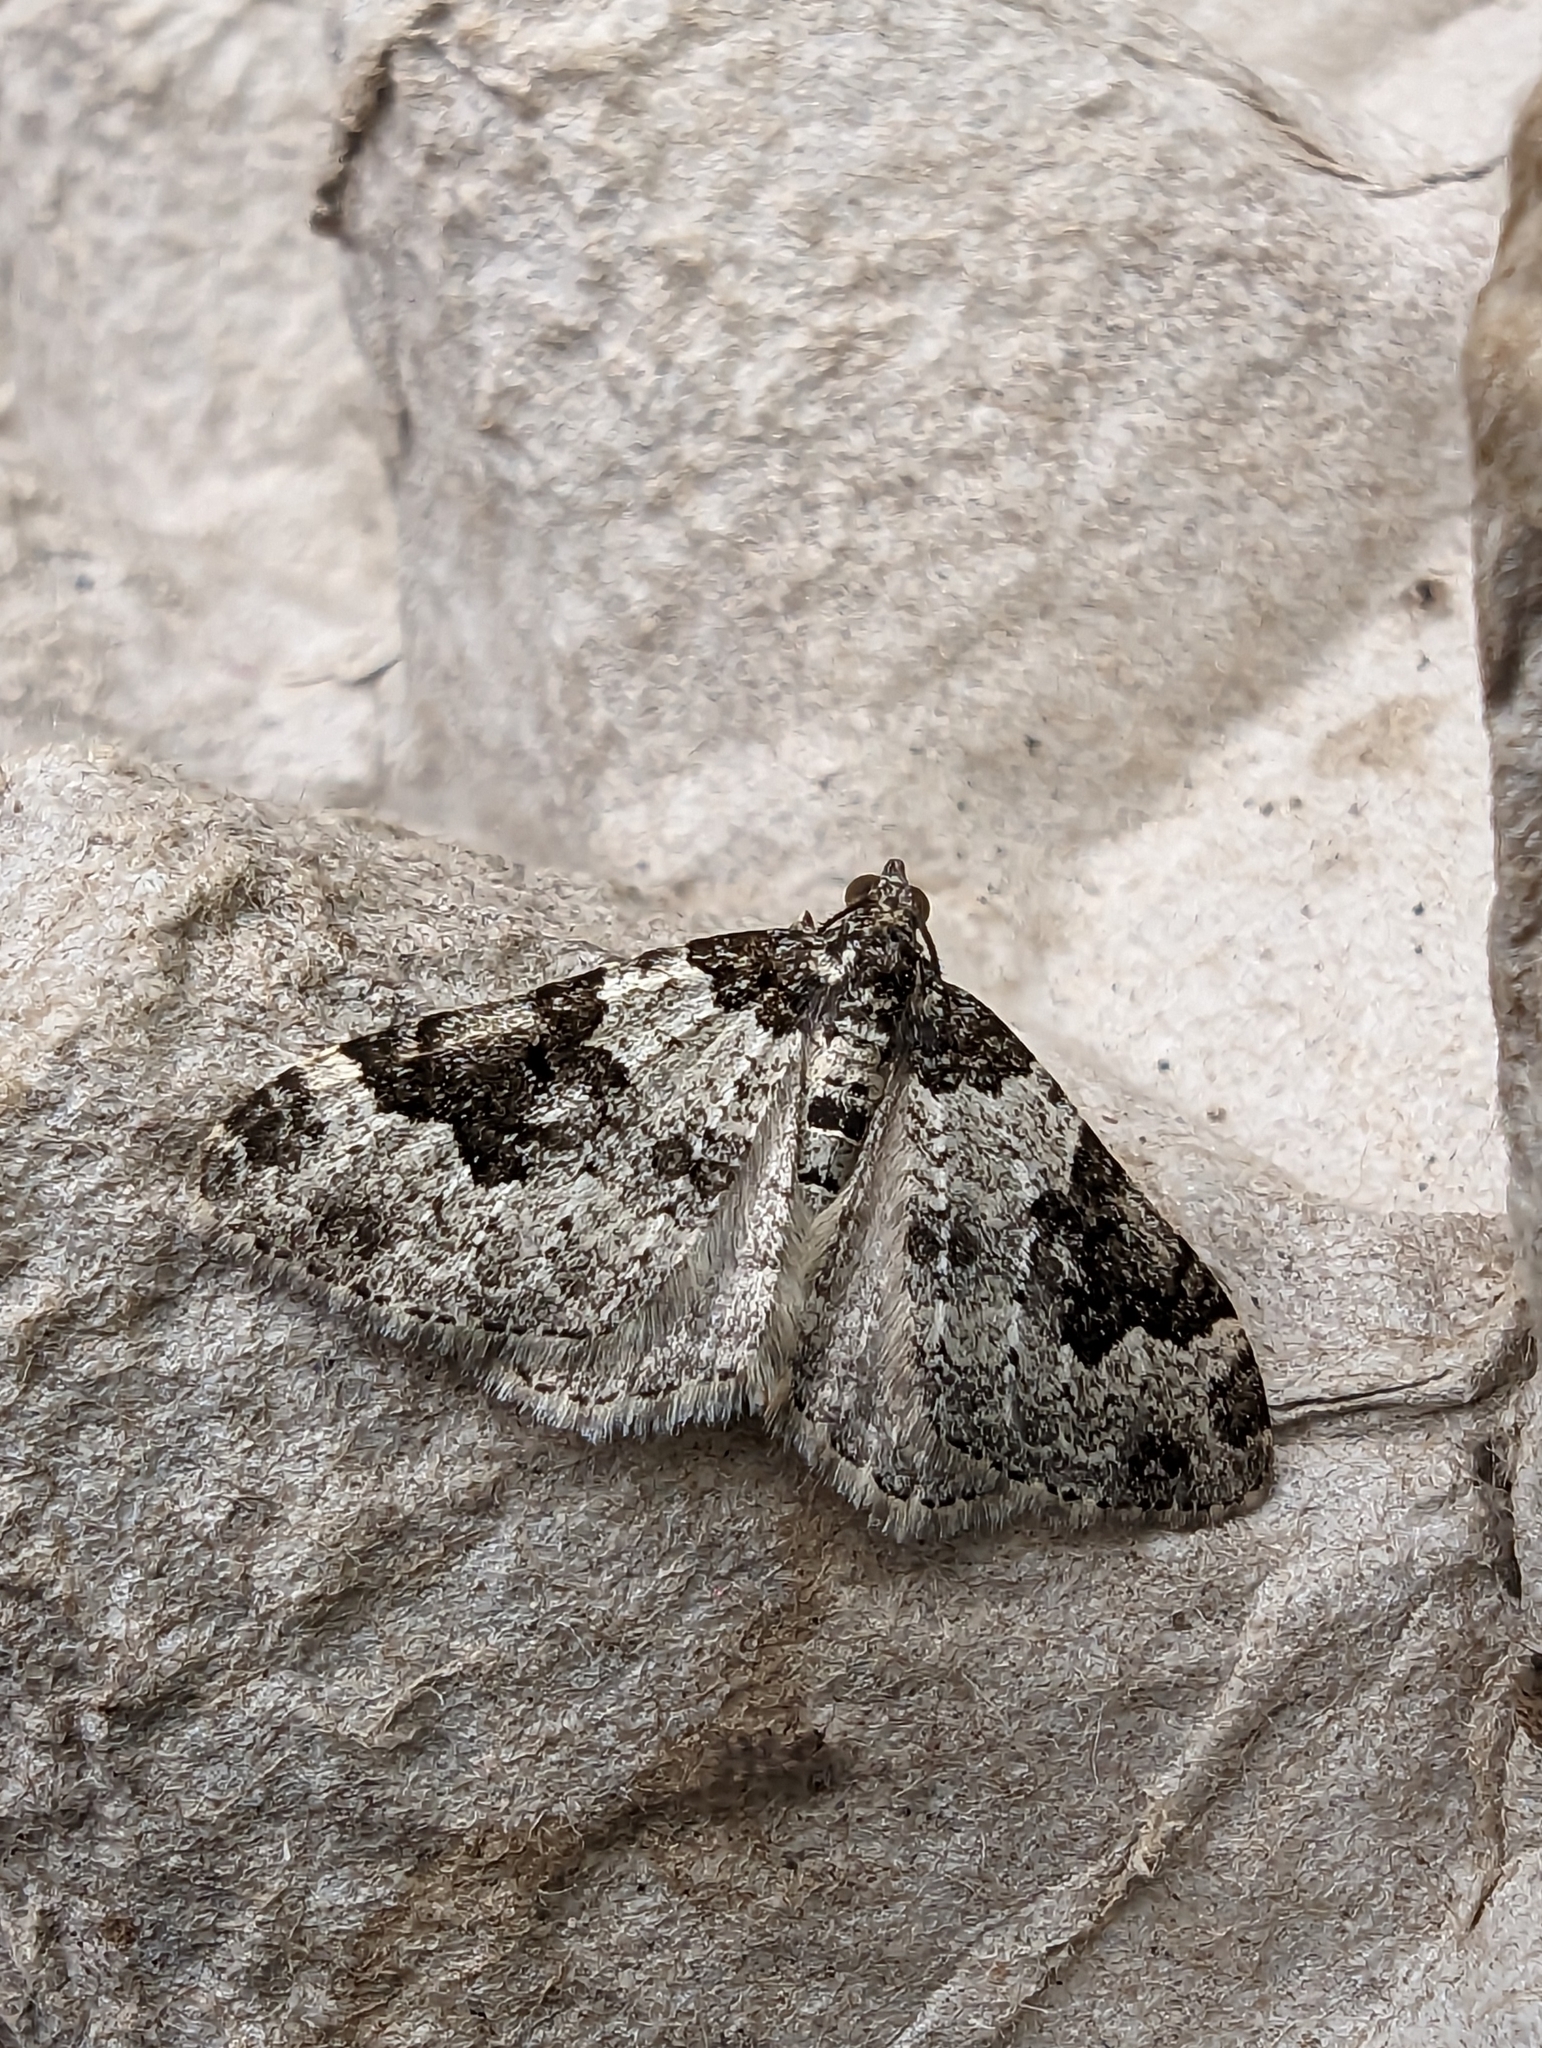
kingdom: Animalia
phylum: Arthropoda
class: Insecta
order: Lepidoptera
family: Geometridae
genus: Xanthorhoe
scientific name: Xanthorhoe fluctuata
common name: Garden carpet
